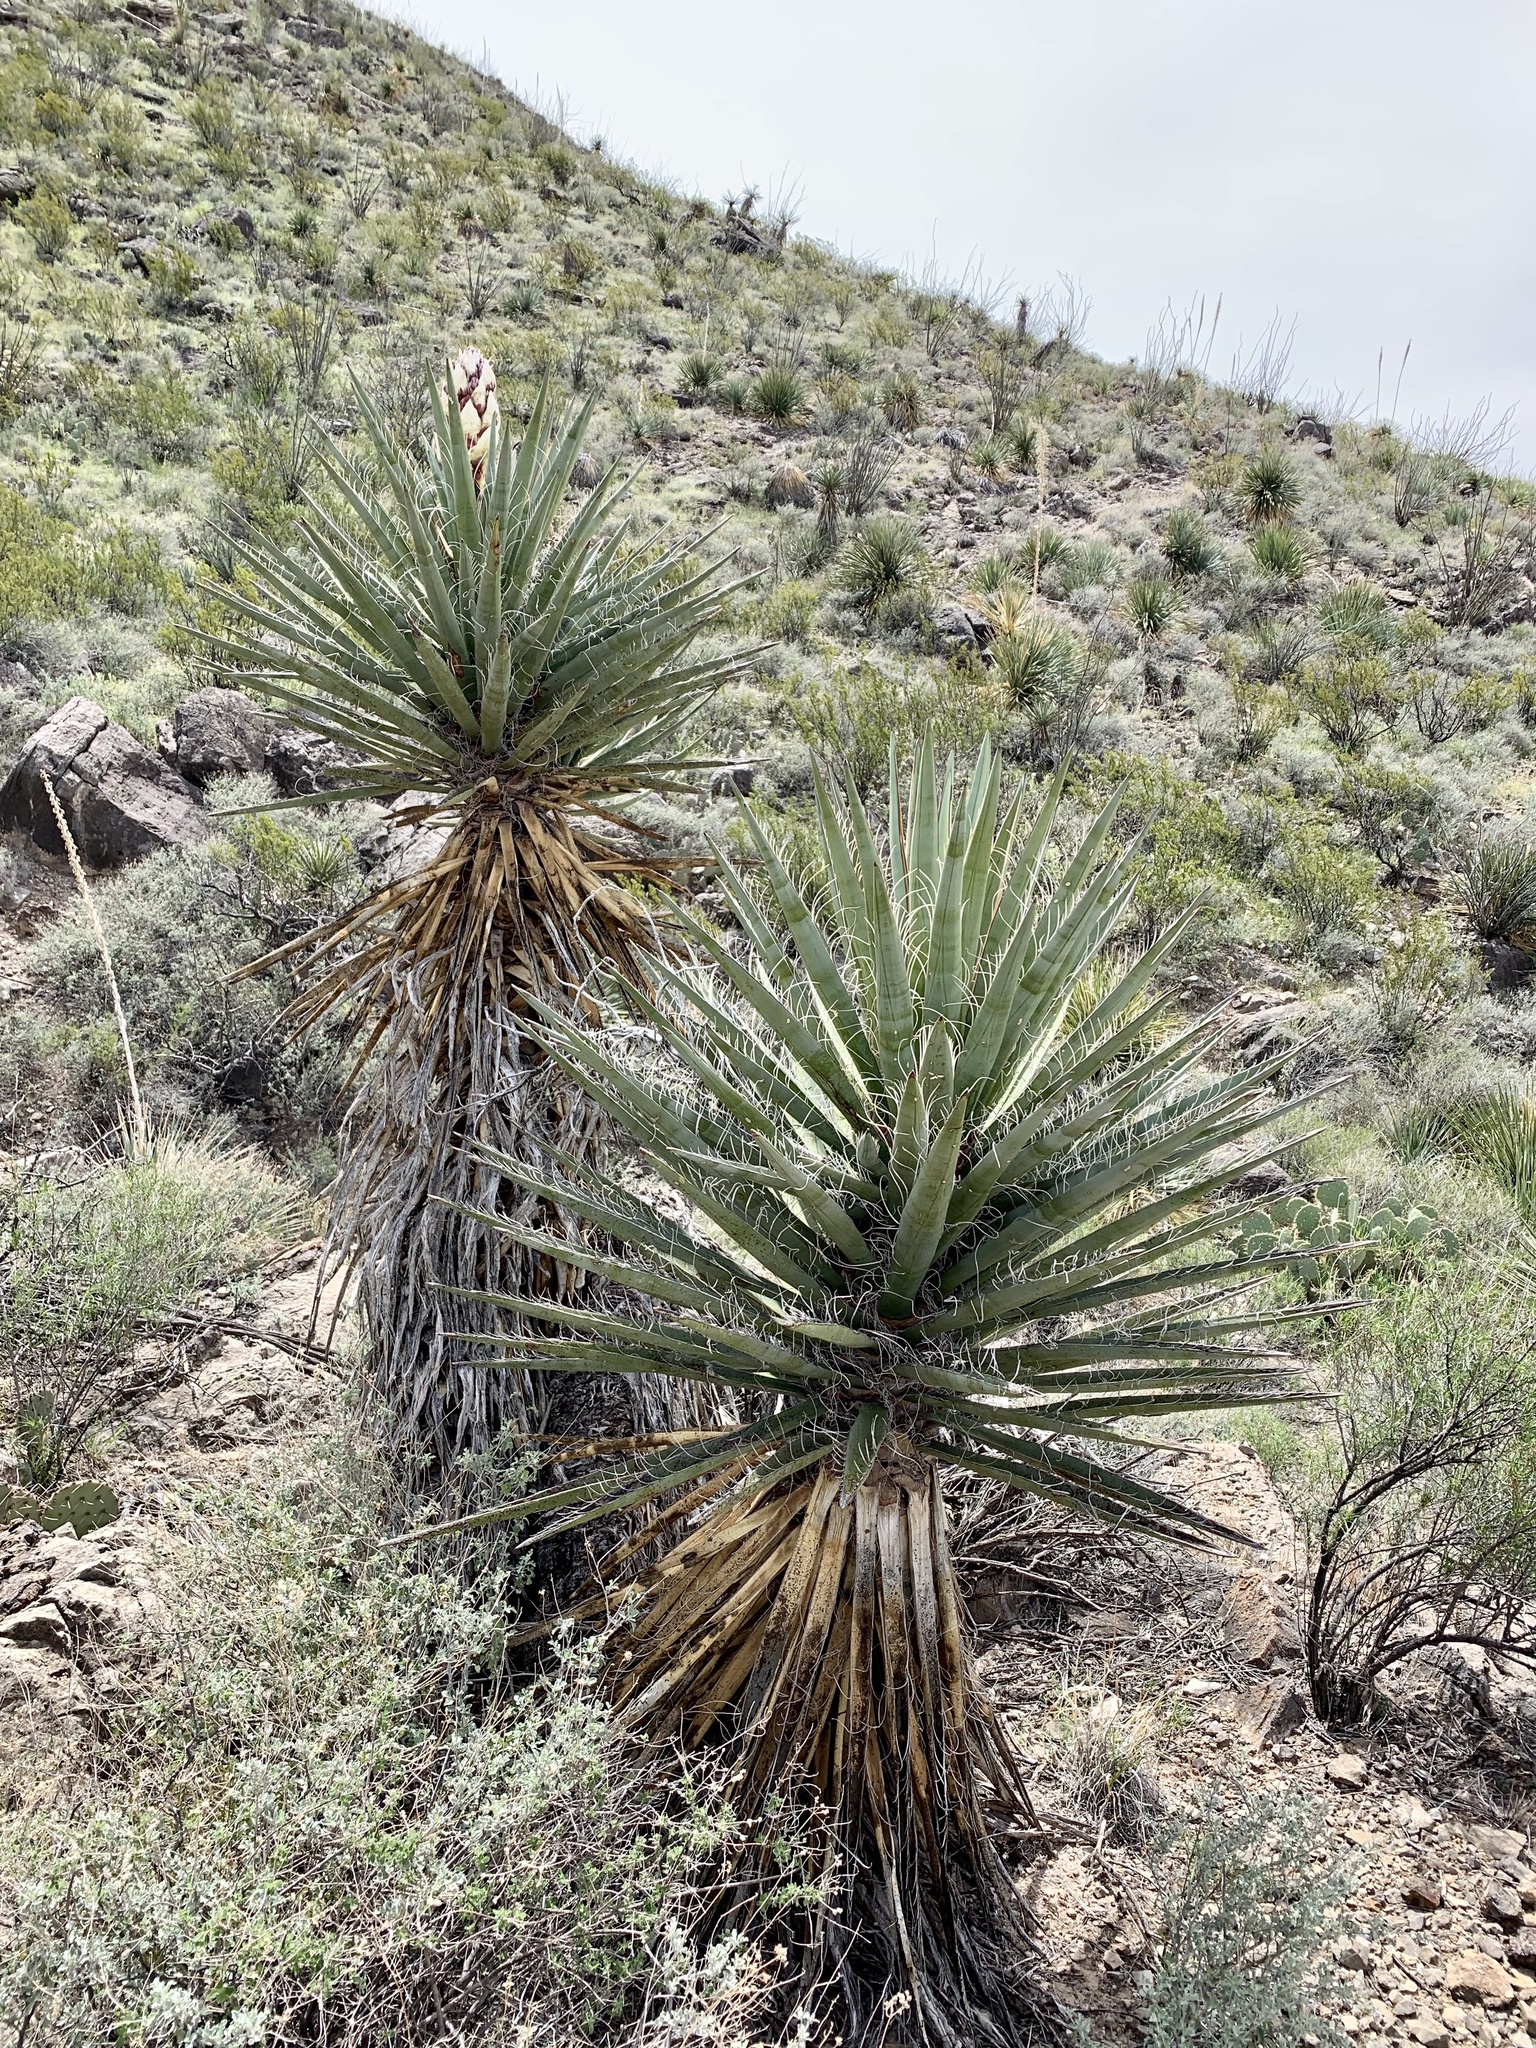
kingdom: Plantae
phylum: Tracheophyta
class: Liliopsida
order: Asparagales
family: Asparagaceae
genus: Yucca
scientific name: Yucca treculiana
